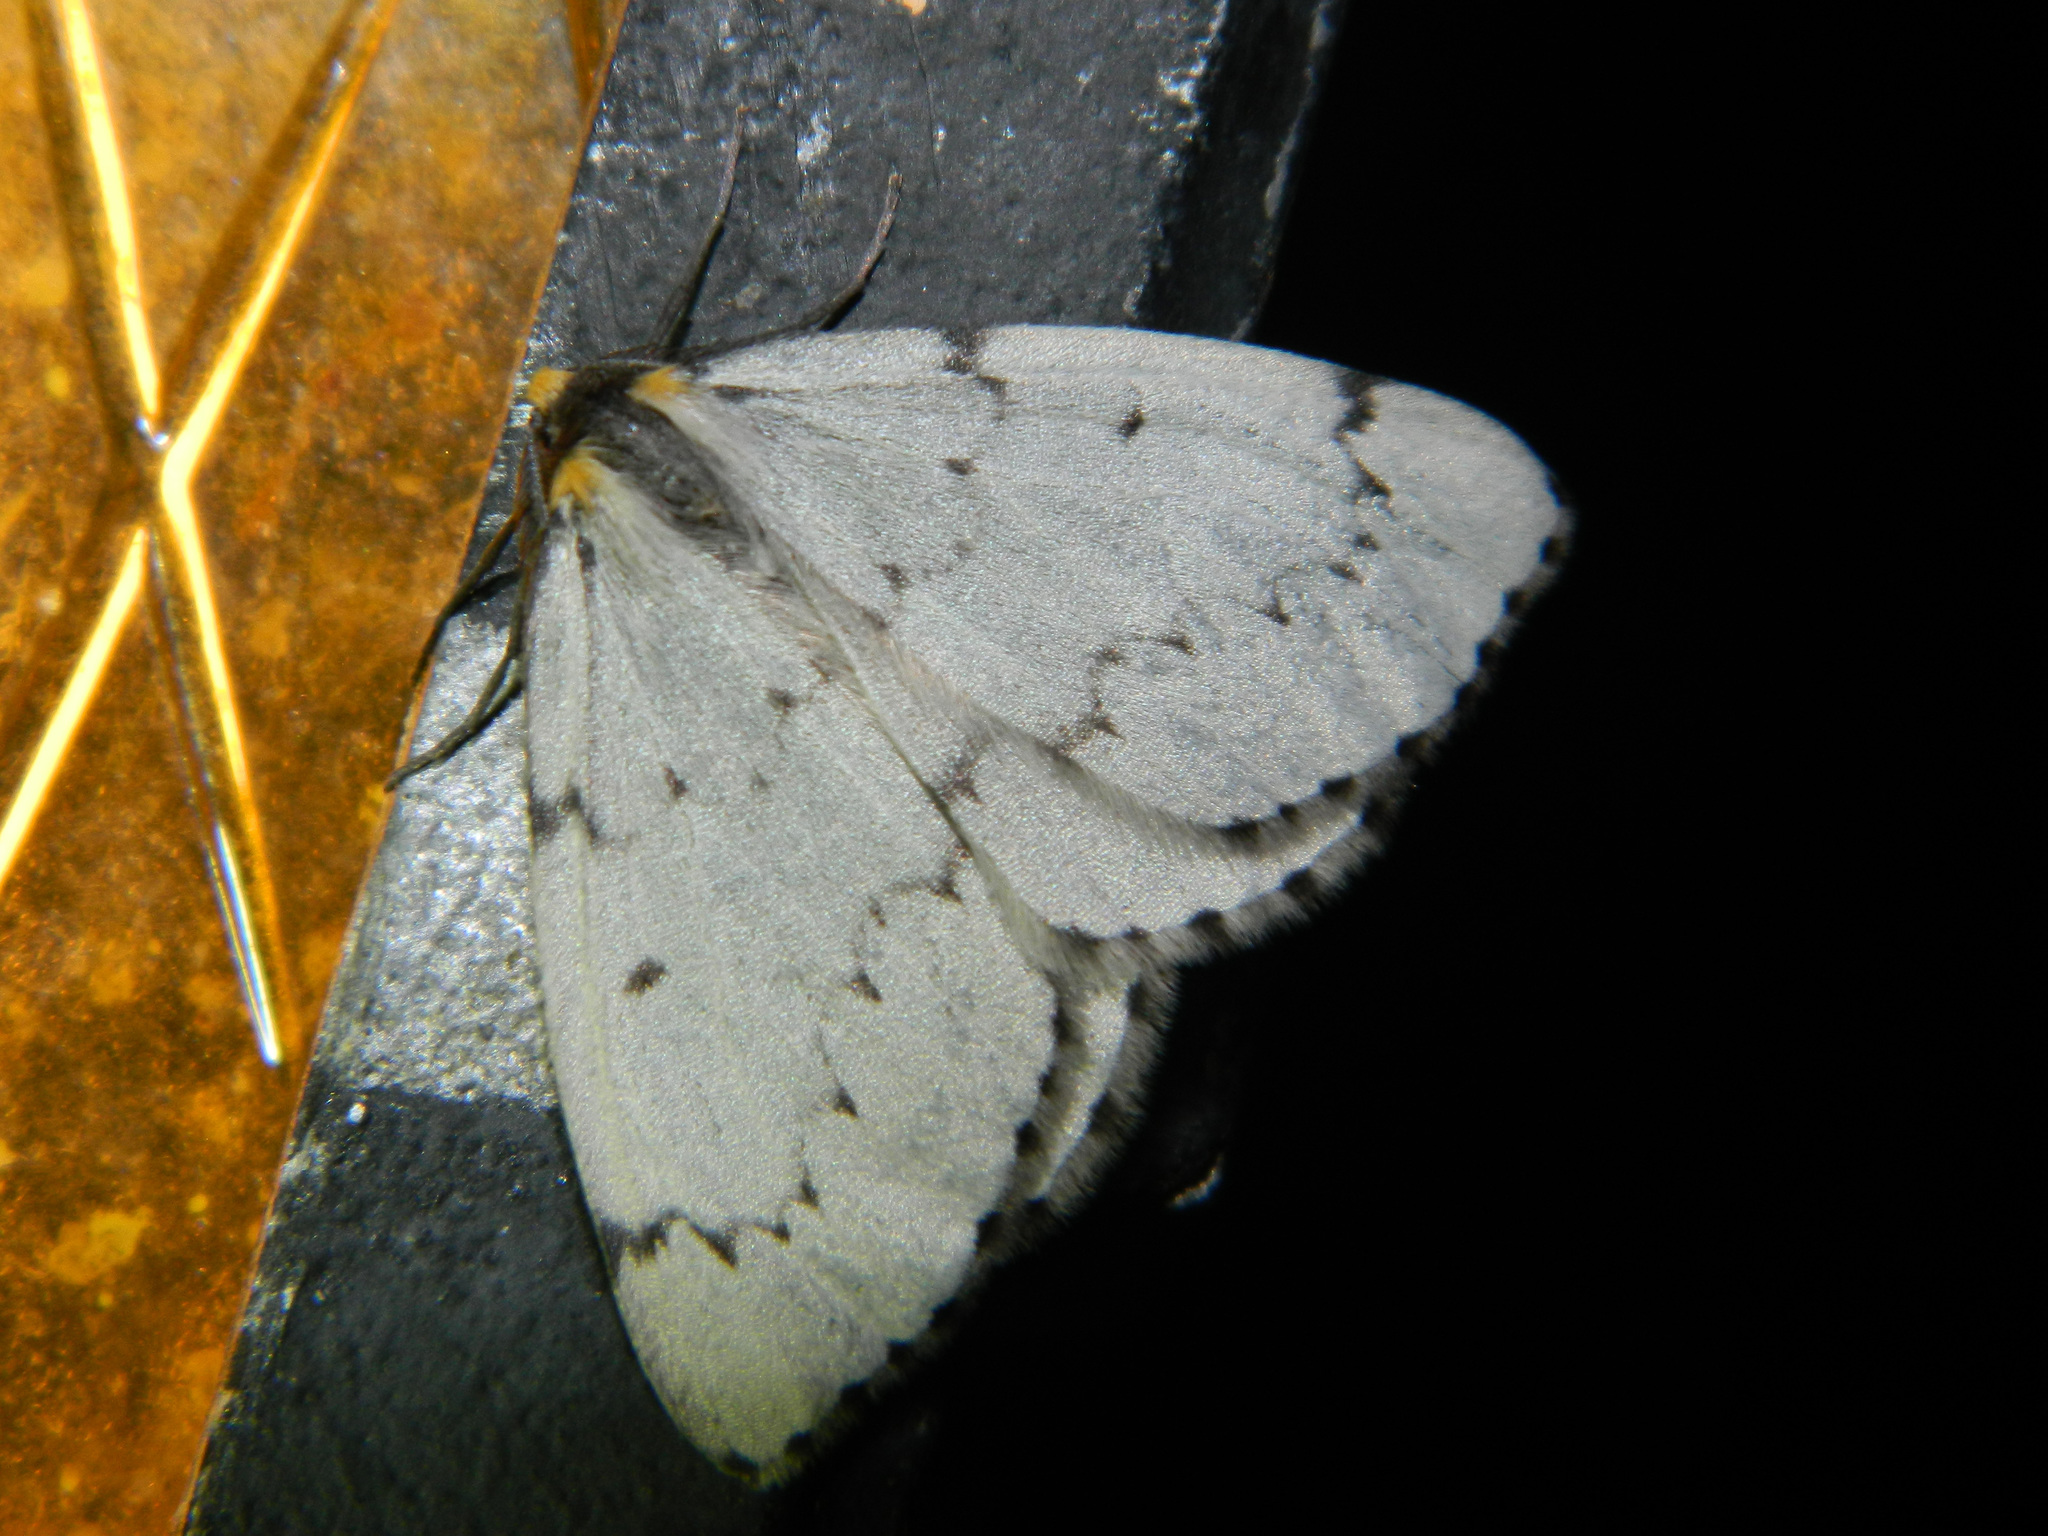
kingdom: Animalia
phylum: Arthropoda
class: Insecta
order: Lepidoptera
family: Geometridae
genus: Cingilia
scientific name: Cingilia catenaria
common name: Chain-dotted geometer
